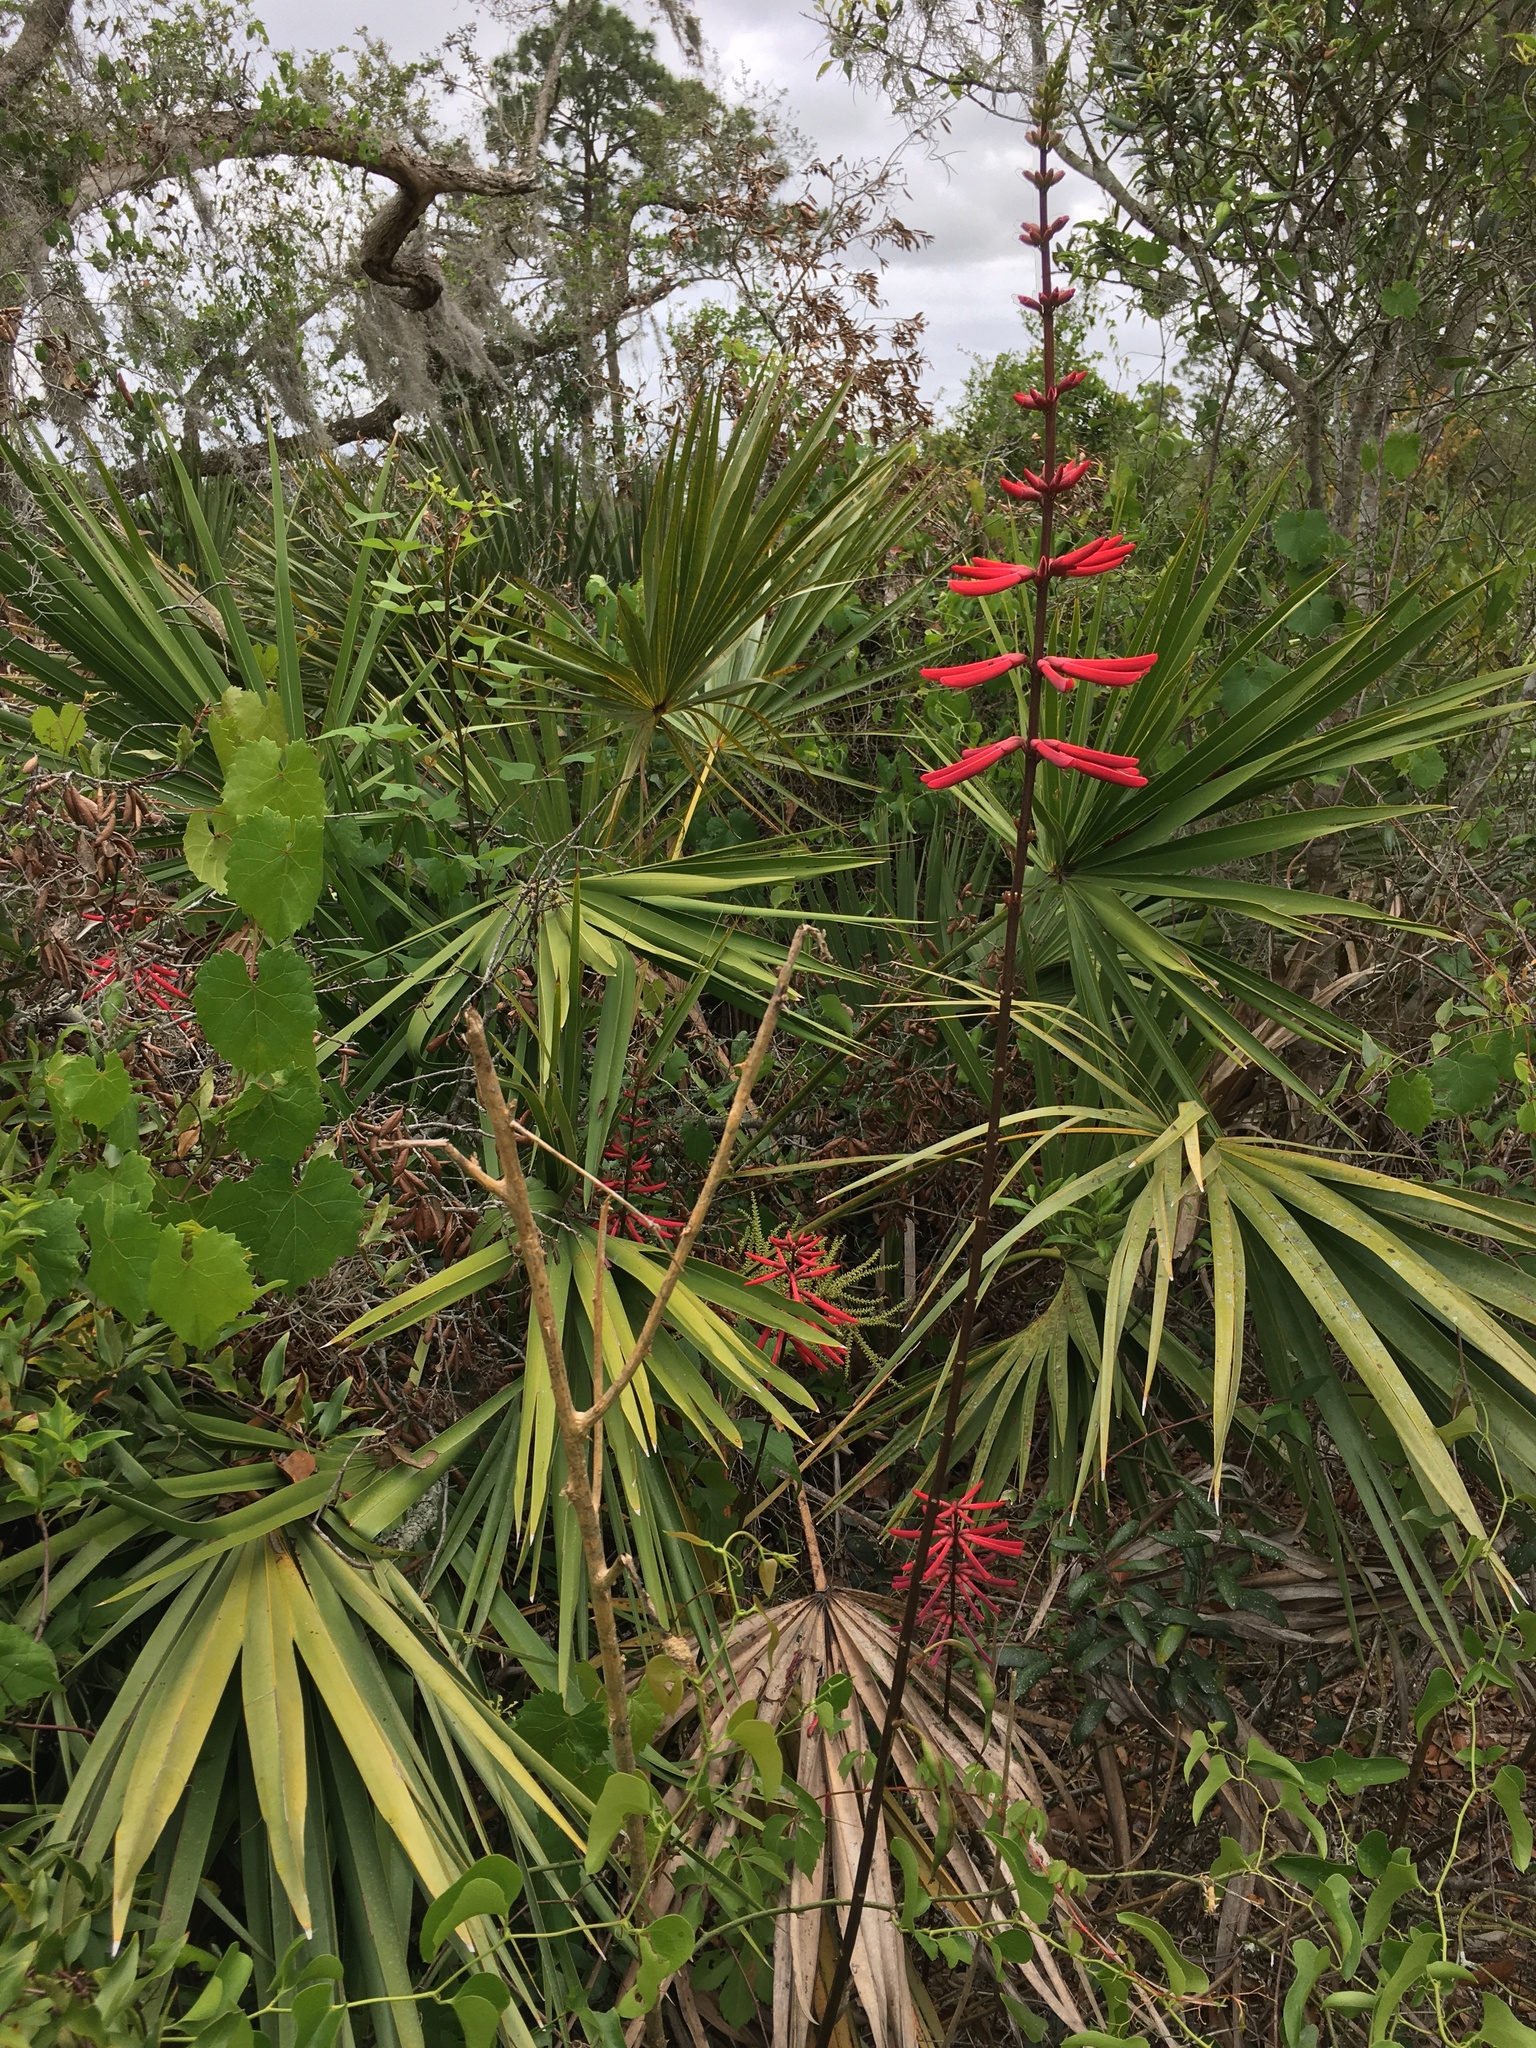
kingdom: Plantae
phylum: Tracheophyta
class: Magnoliopsida
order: Fabales
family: Fabaceae
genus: Erythrina
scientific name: Erythrina herbacea
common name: Coral-bean
